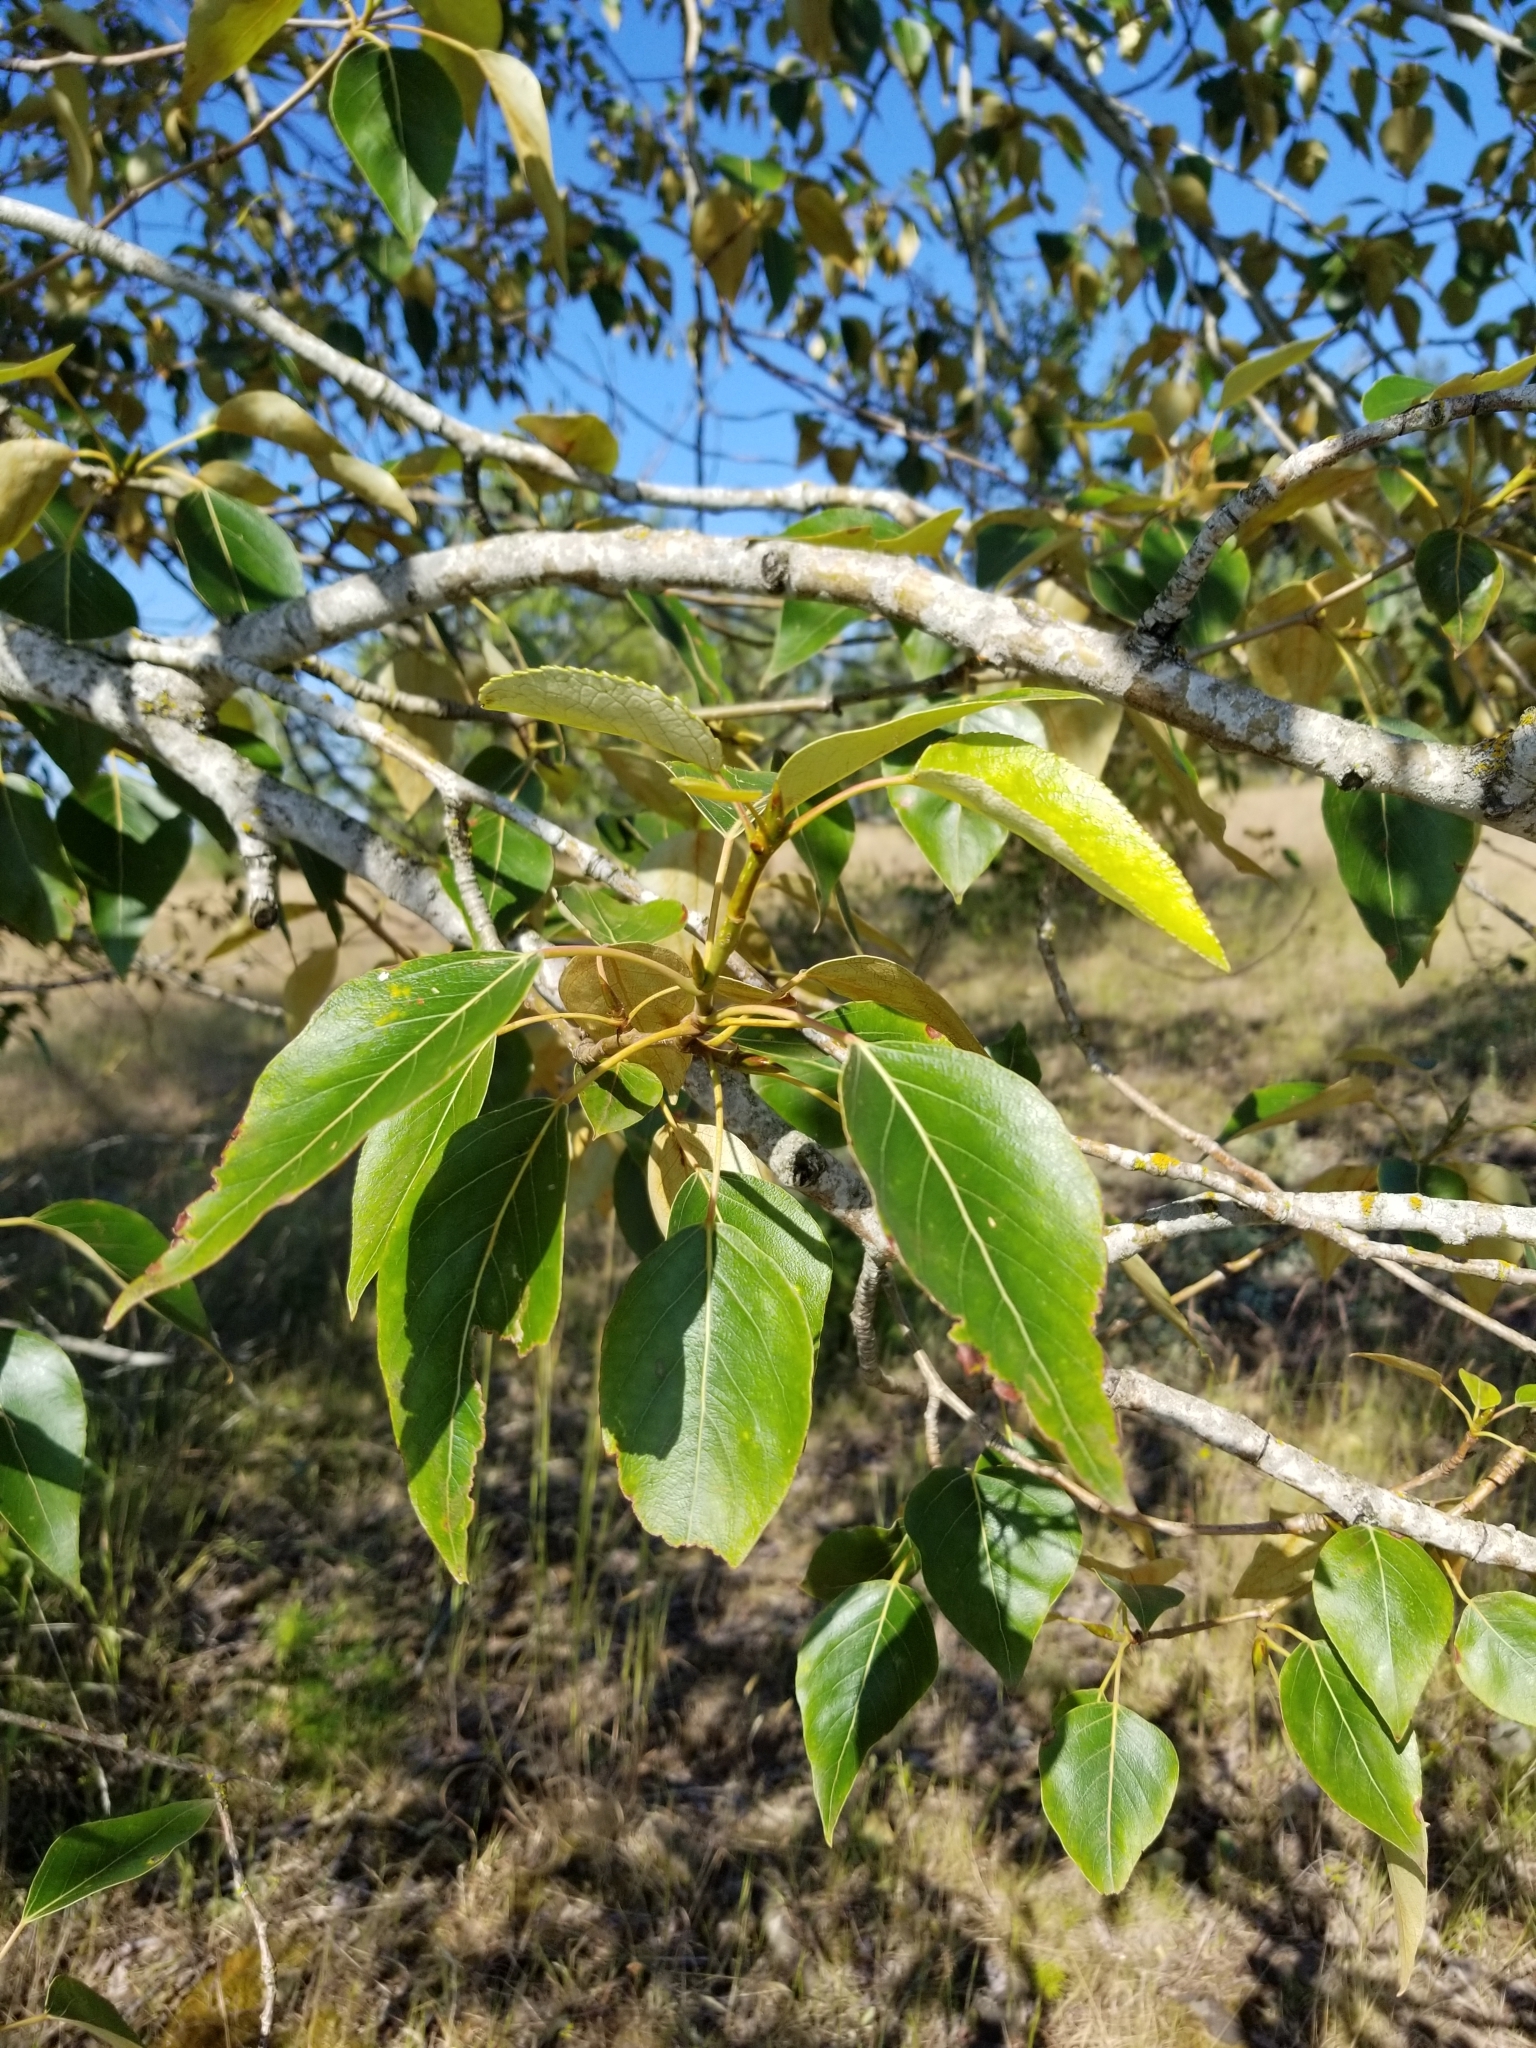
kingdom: Plantae
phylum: Tracheophyta
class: Magnoliopsida
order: Malpighiales
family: Salicaceae
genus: Populus
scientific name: Populus trichocarpa
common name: Black cottonwood
